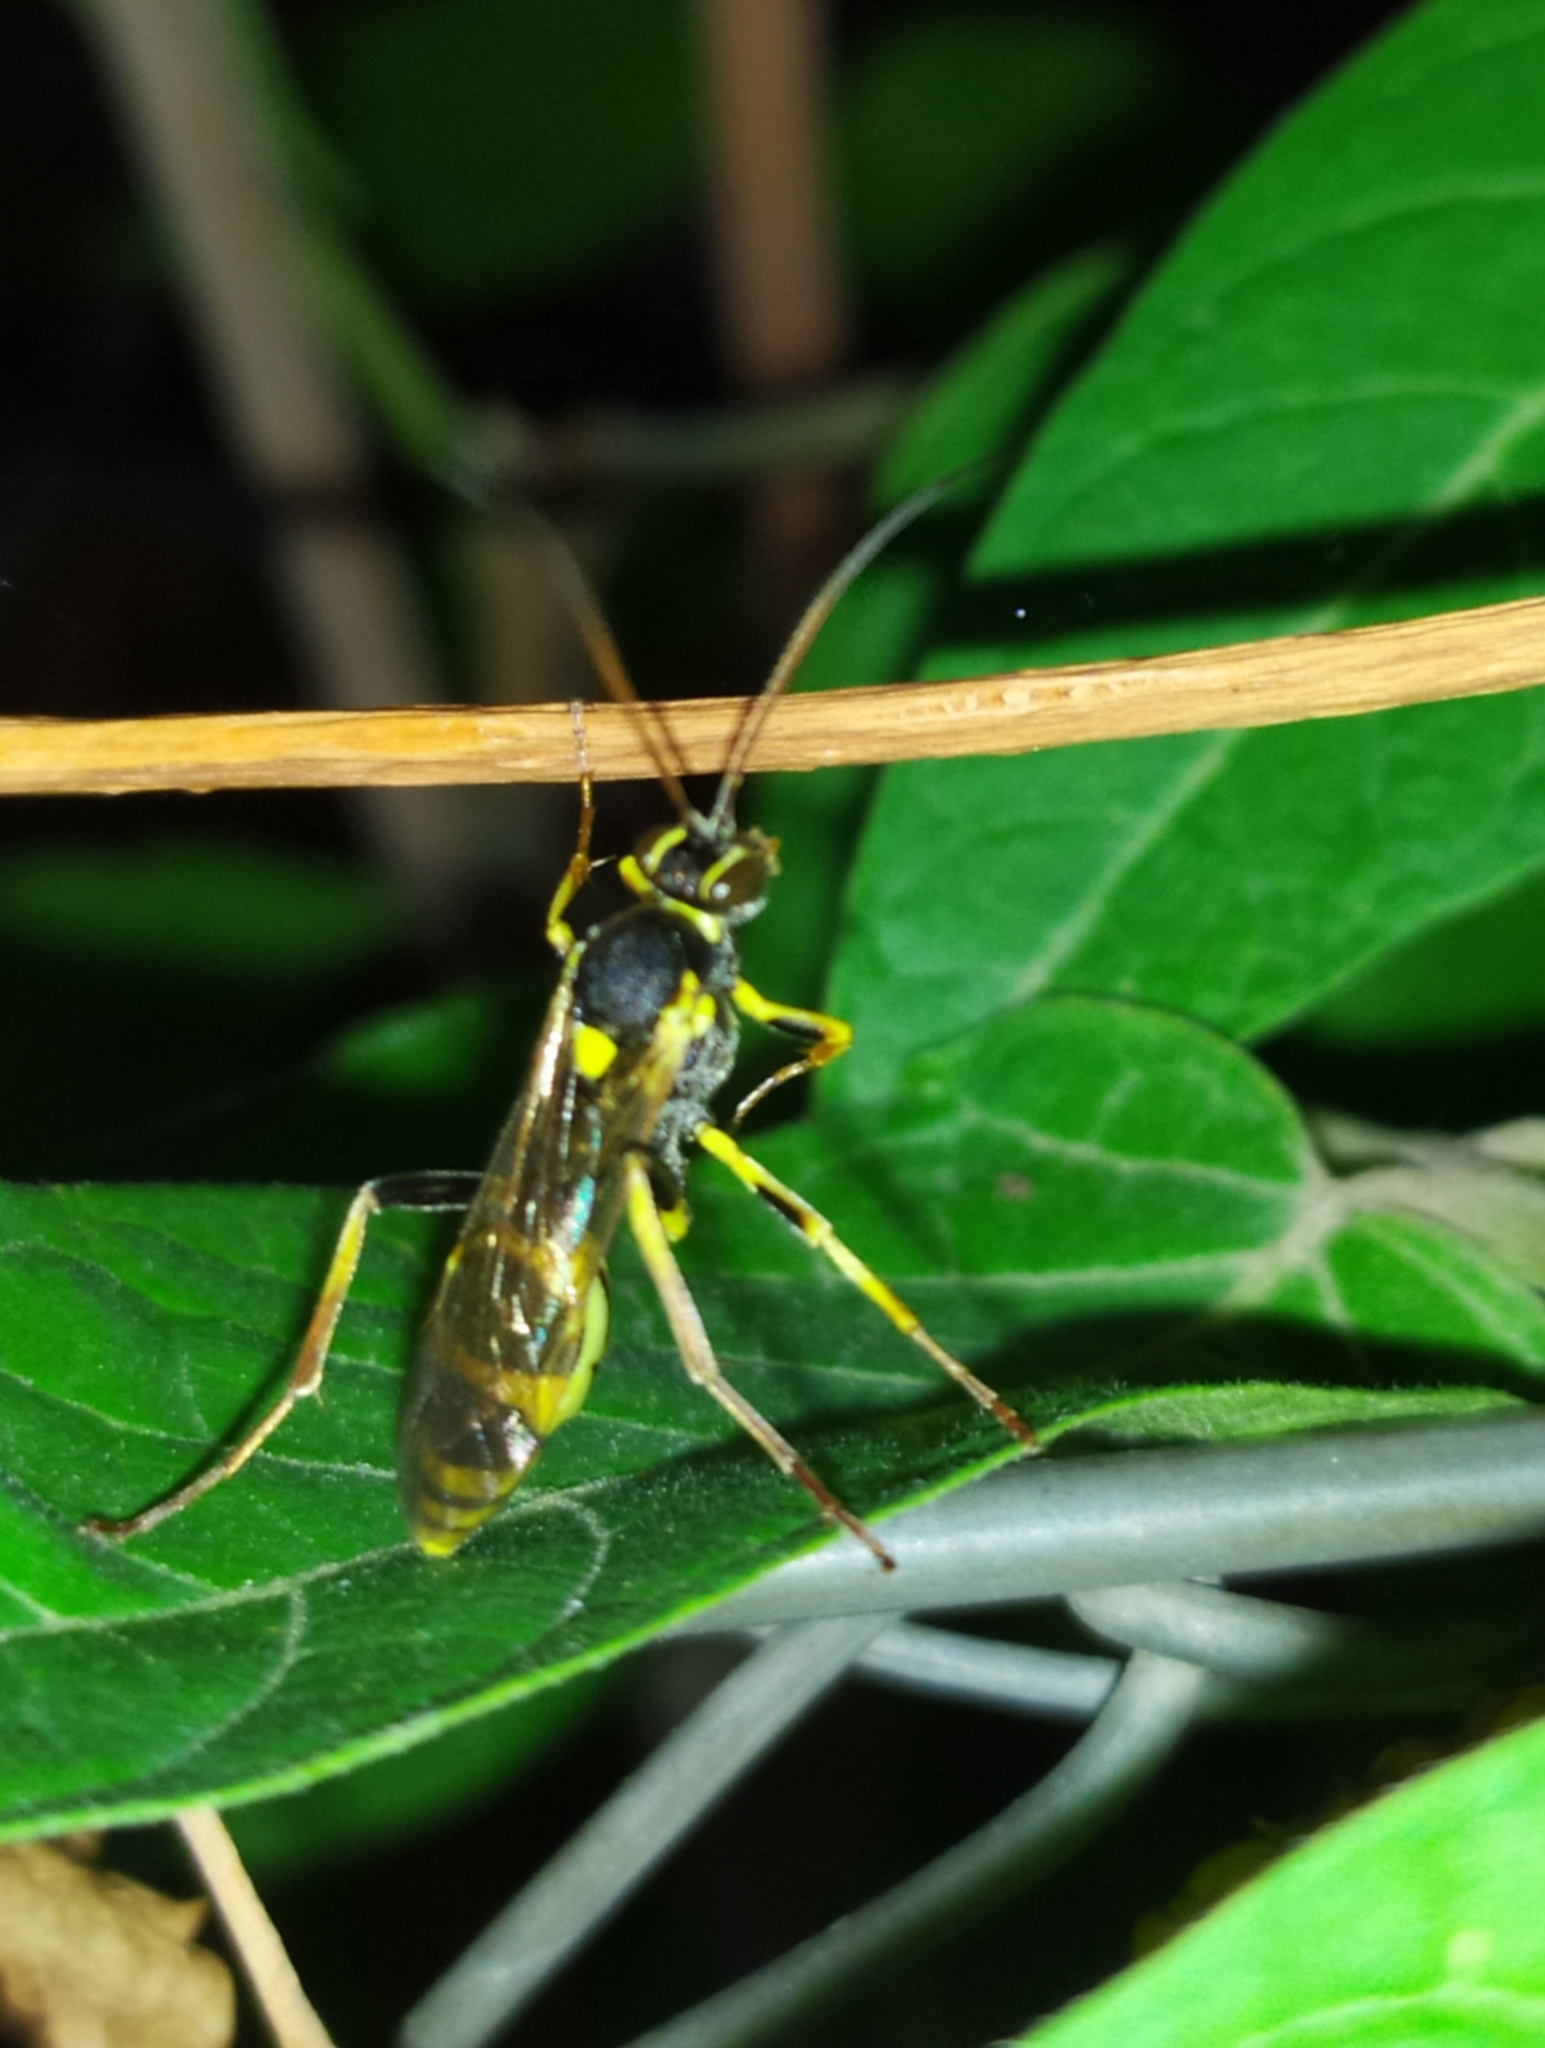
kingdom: Animalia
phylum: Arthropoda
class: Insecta
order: Hymenoptera
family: Ichneumonidae
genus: Amblyteles
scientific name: Amblyteles armatorius
